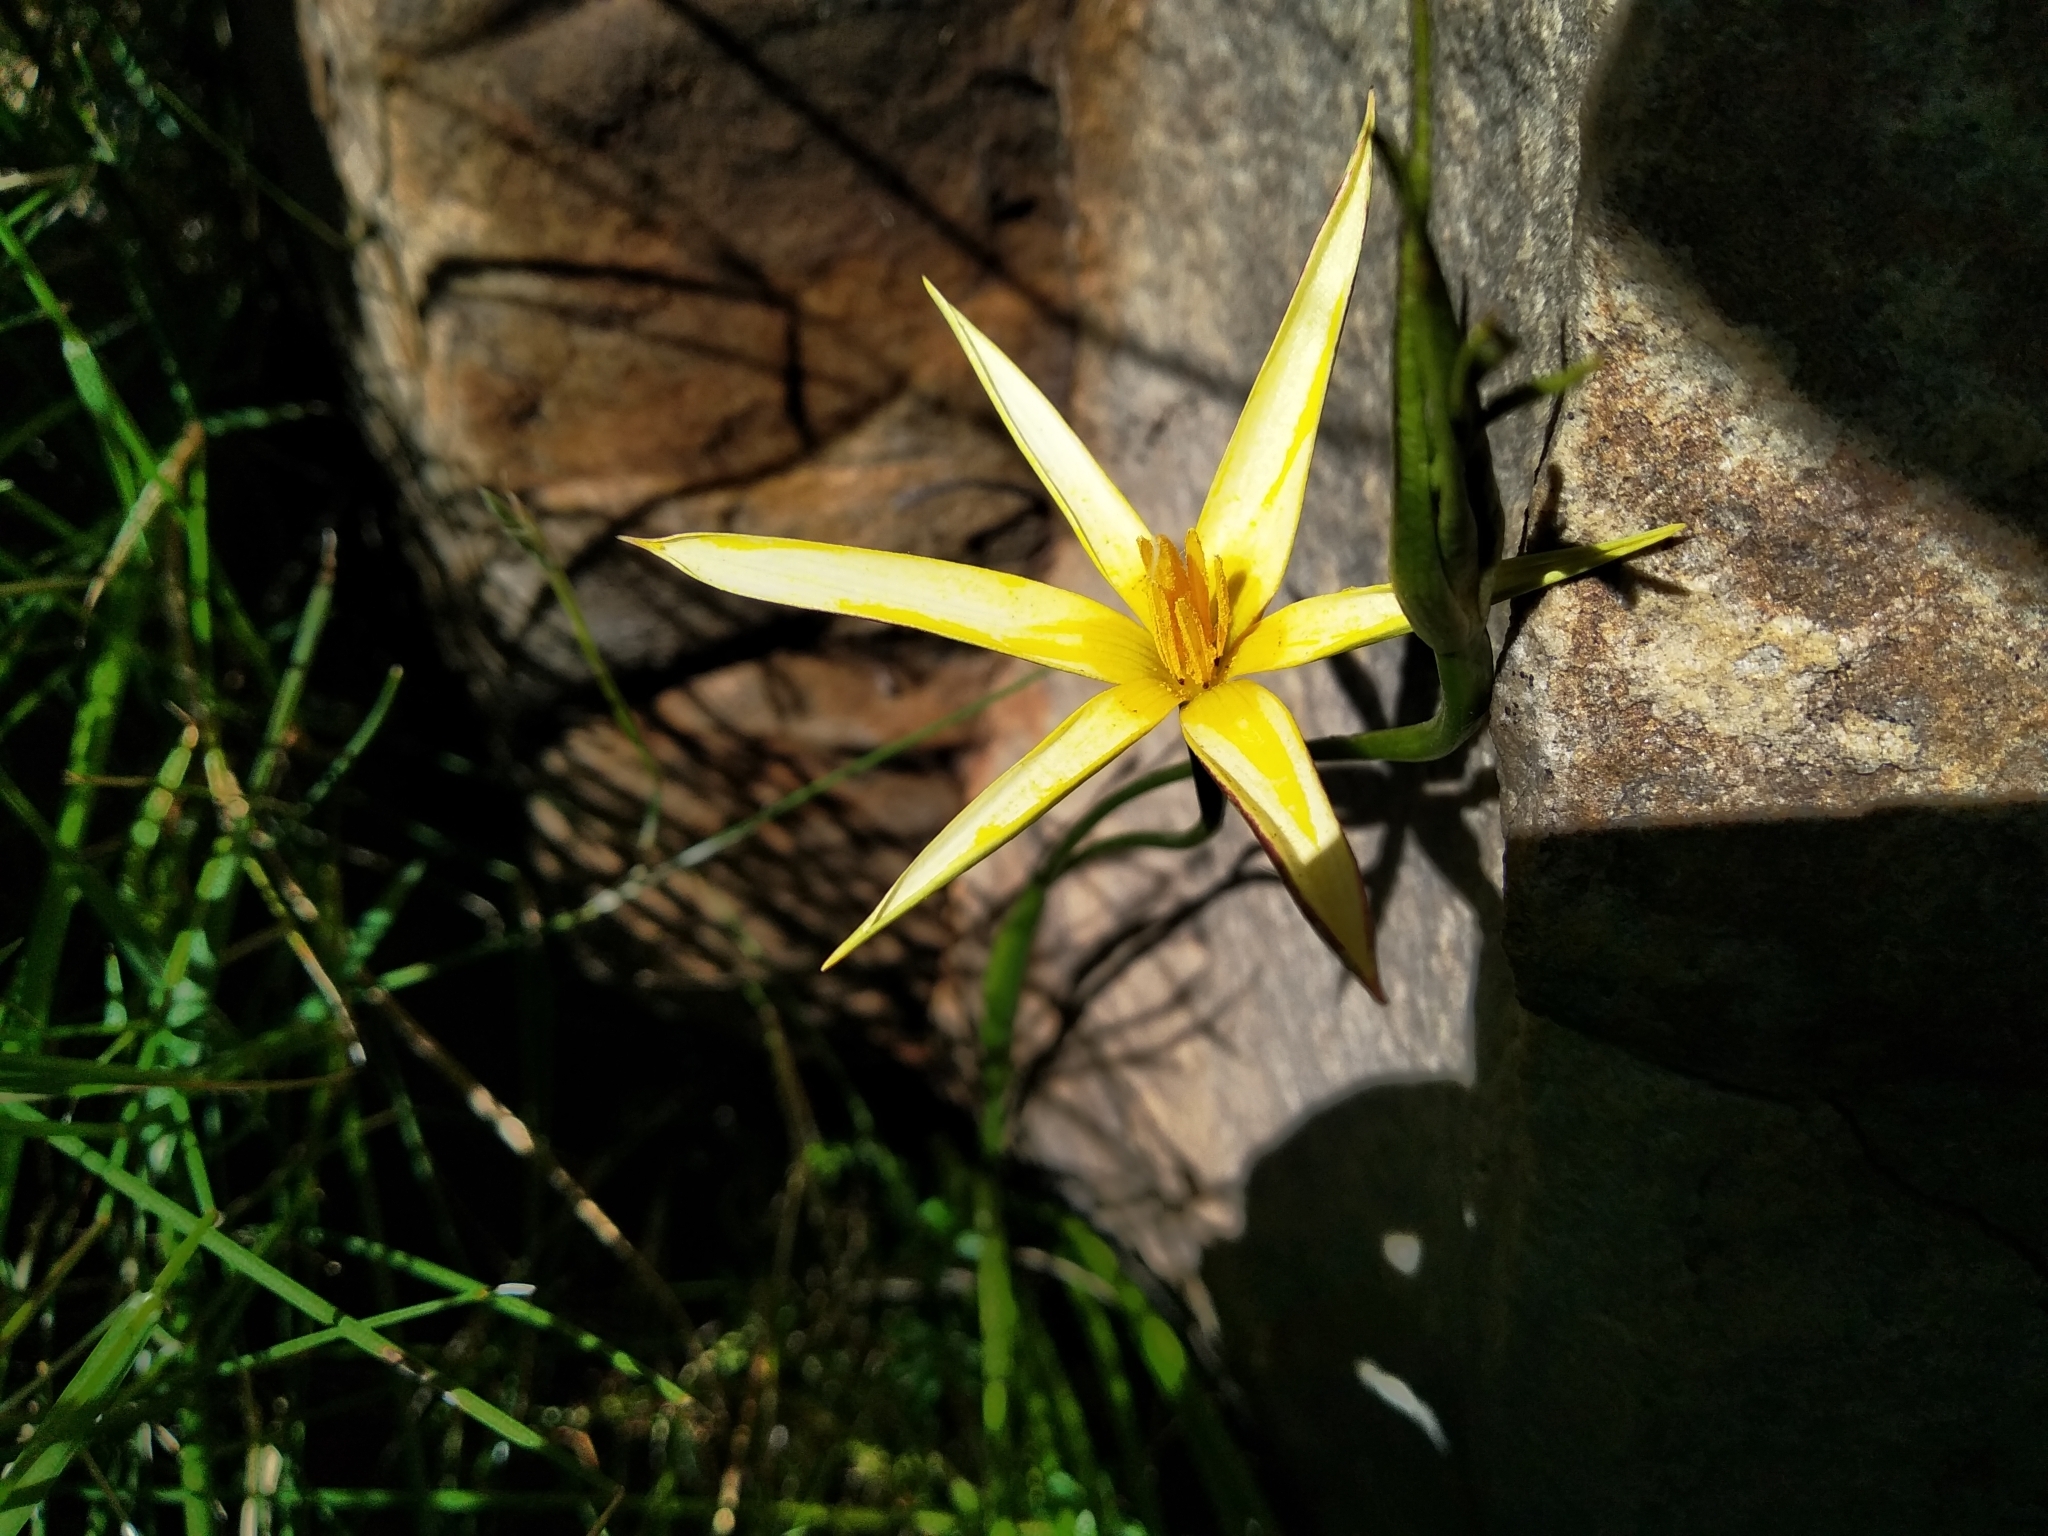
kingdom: Plantae
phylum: Tracheophyta
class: Liliopsida
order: Asparagales
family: Hypoxidaceae
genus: Pauridia
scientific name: Pauridia capensis
